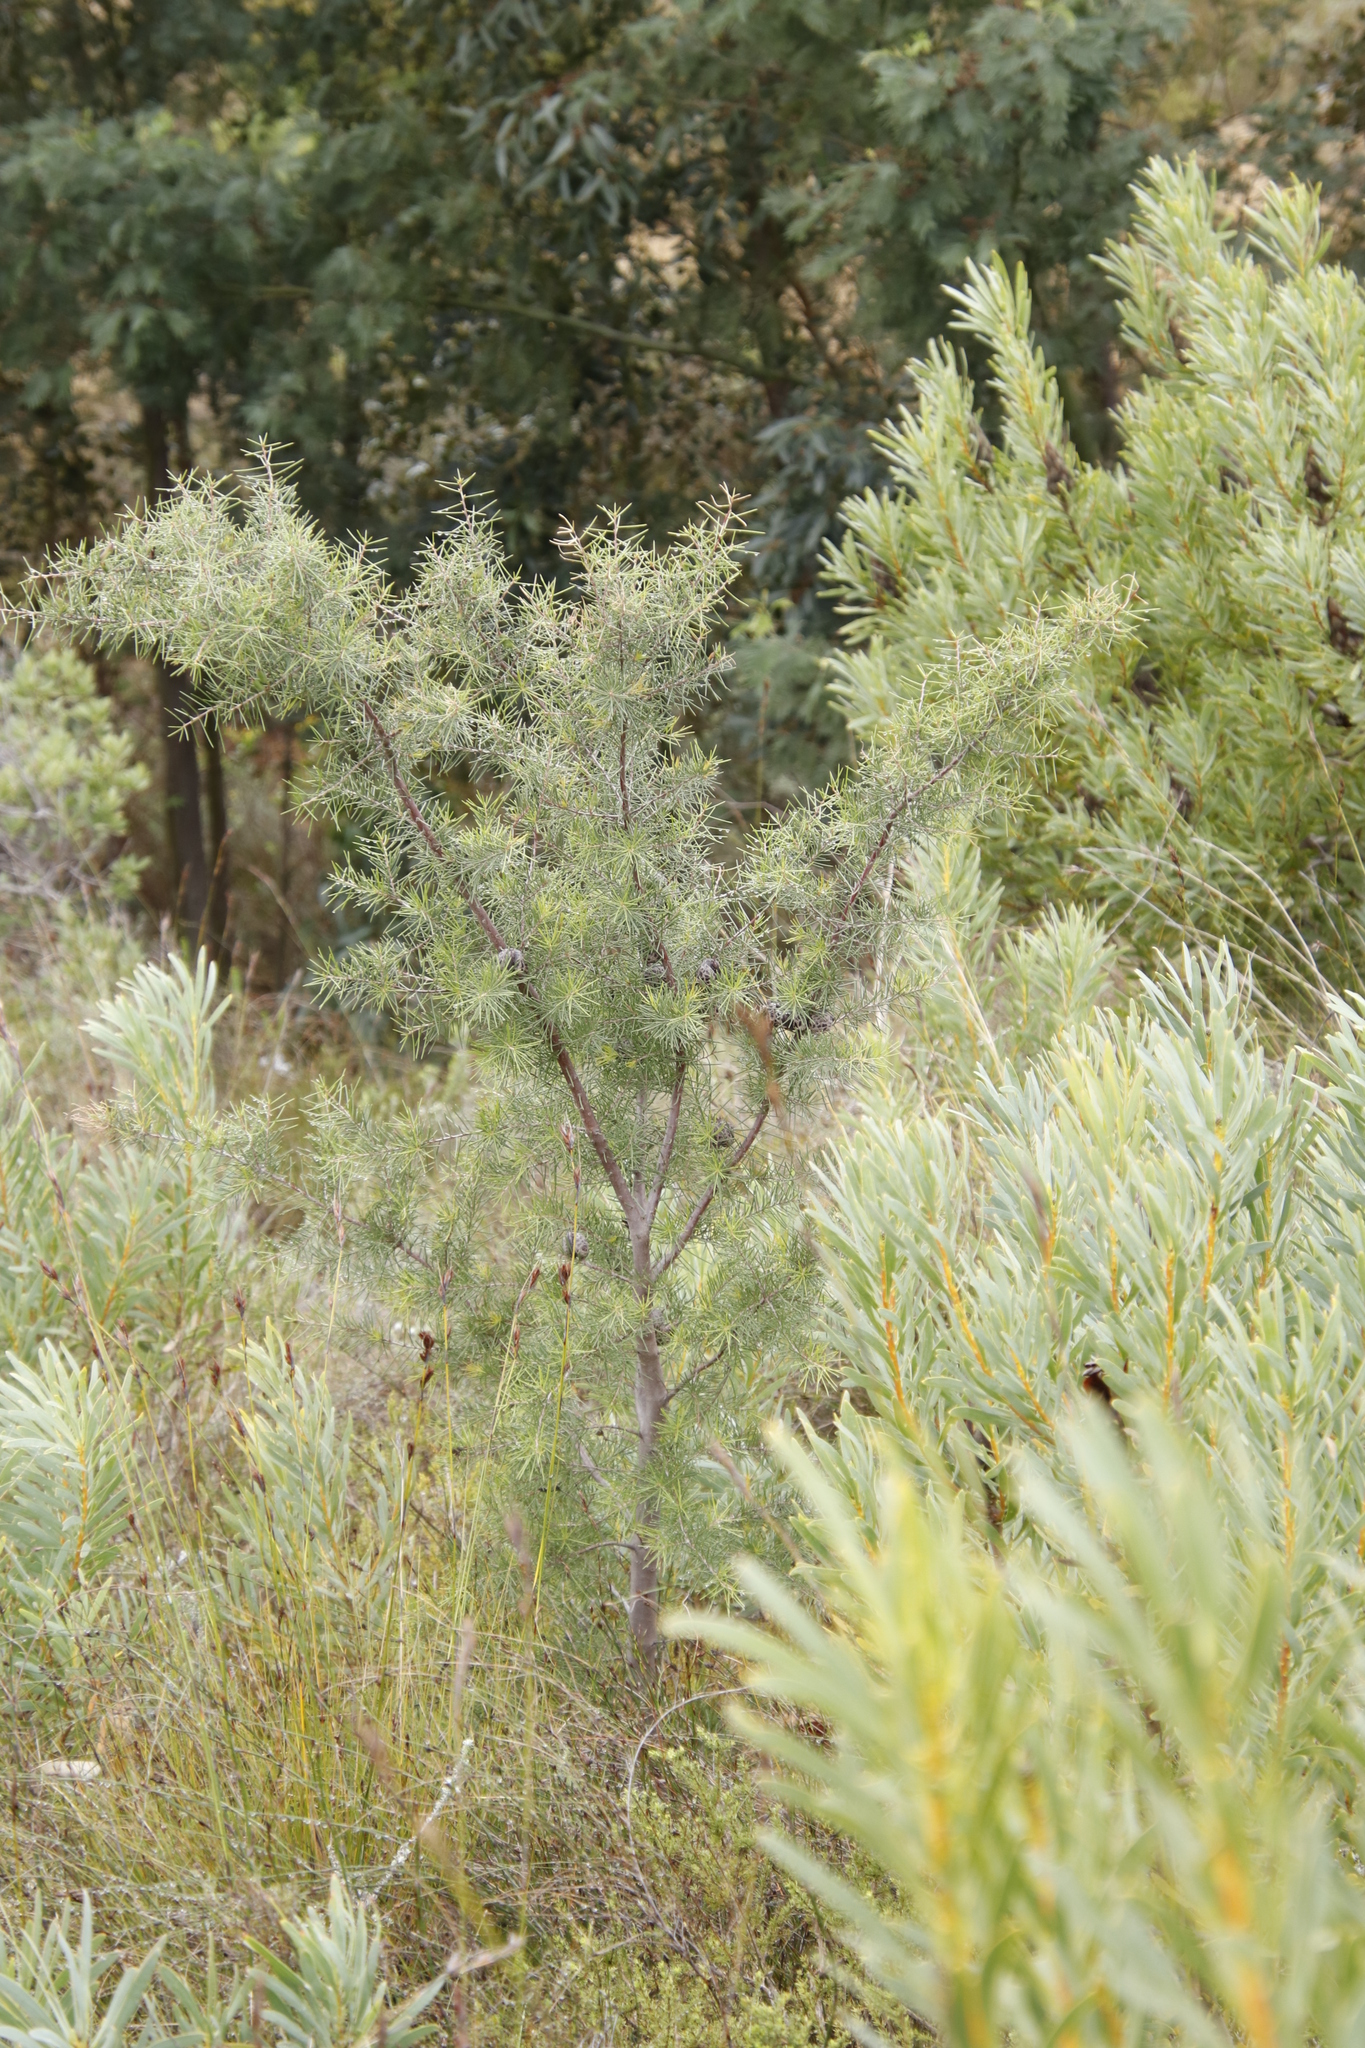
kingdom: Plantae
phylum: Tracheophyta
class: Magnoliopsida
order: Proteales
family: Proteaceae
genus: Hakea
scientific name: Hakea sericea
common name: Needle bush
